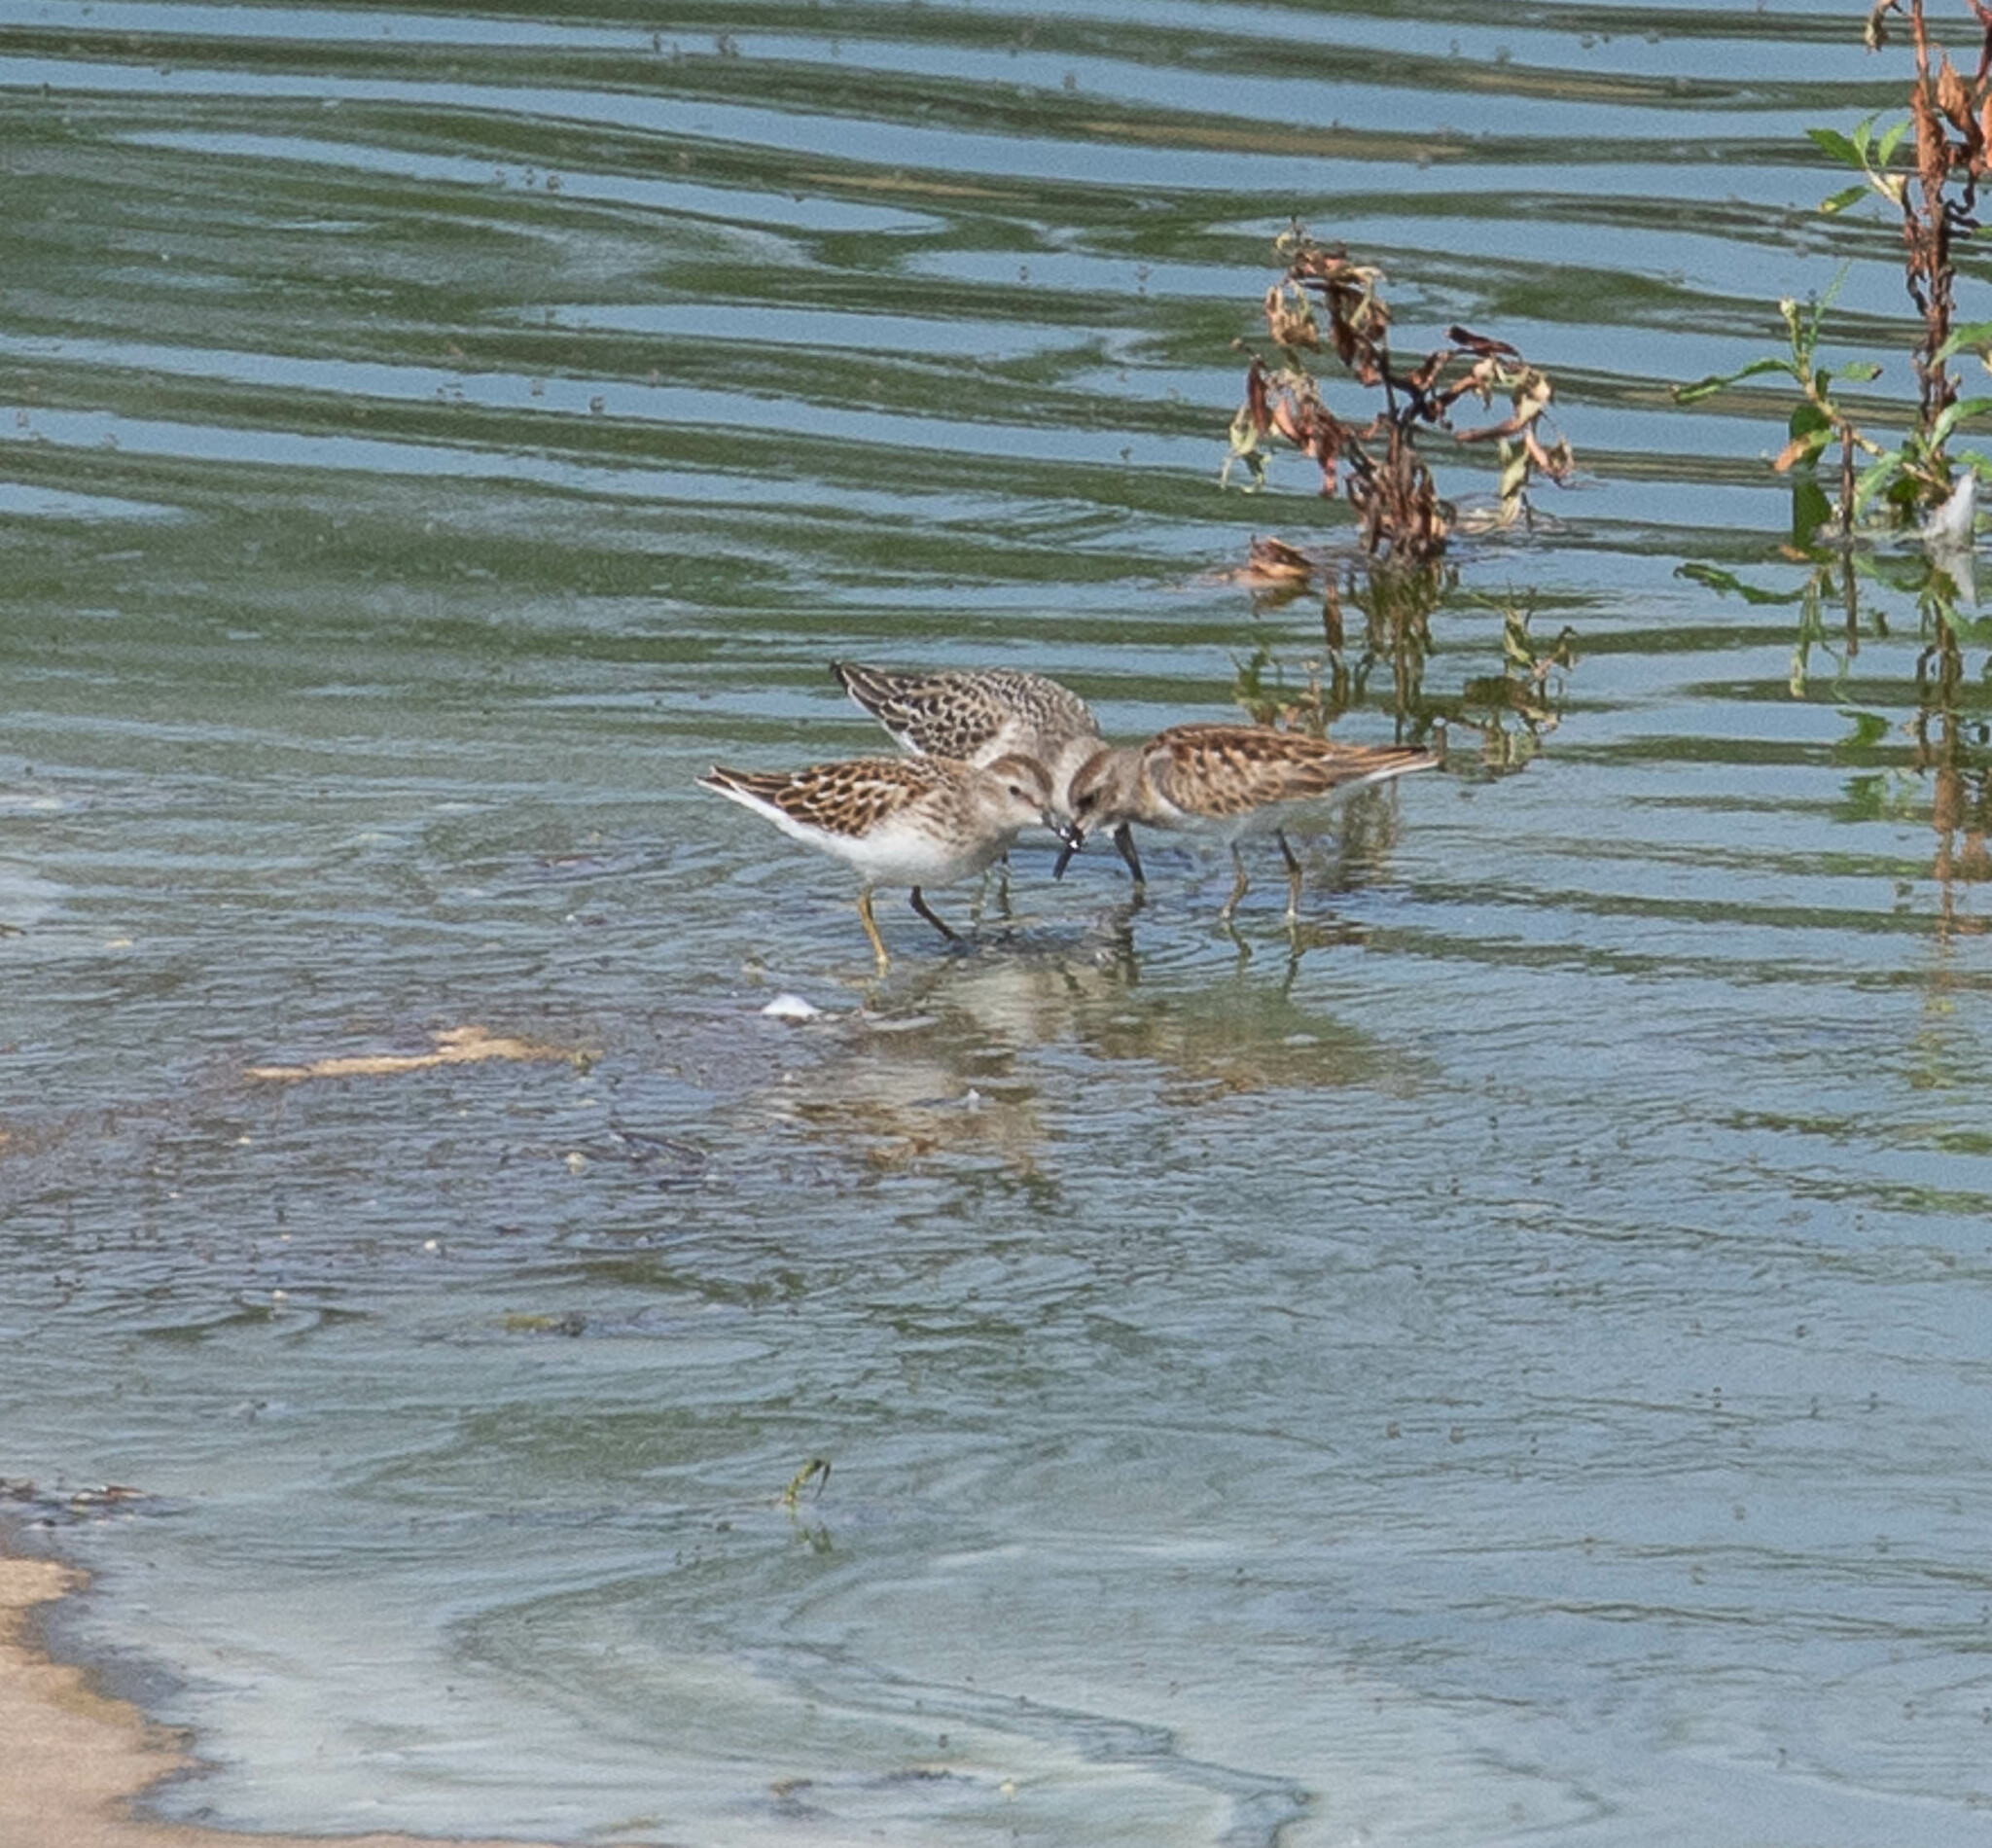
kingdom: Animalia
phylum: Chordata
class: Aves
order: Charadriiformes
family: Scolopacidae
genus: Calidris
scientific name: Calidris minutilla
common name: Least sandpiper
